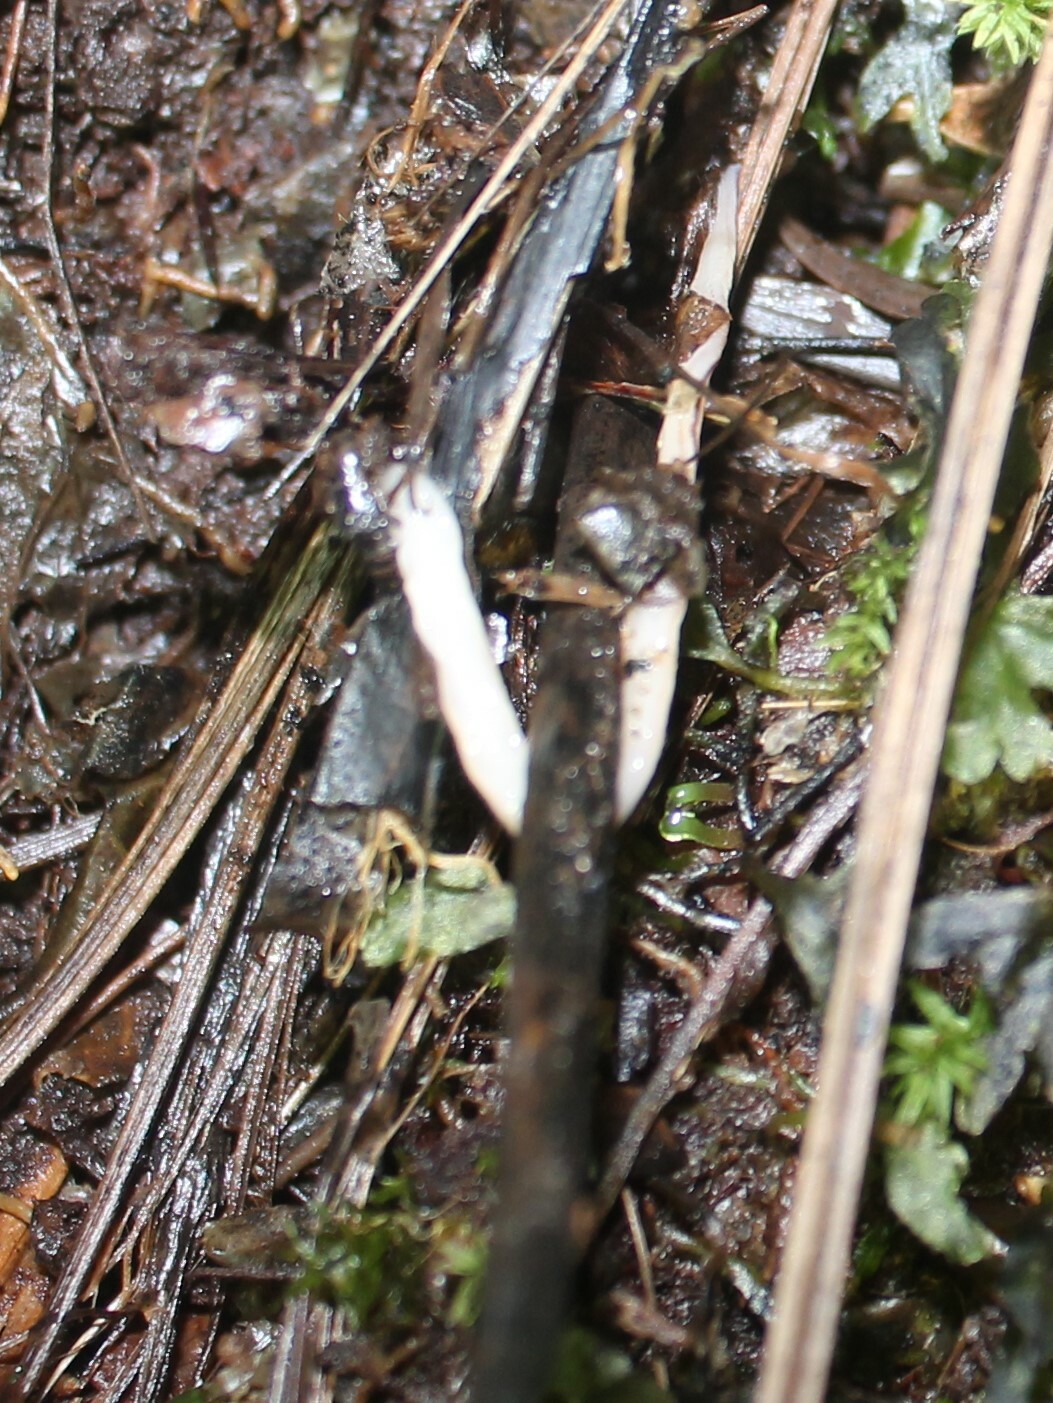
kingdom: Animalia
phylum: Platyhelminthes
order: Tricladida
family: Geoplanidae
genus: Artioposthia
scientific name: Artioposthia howesi
